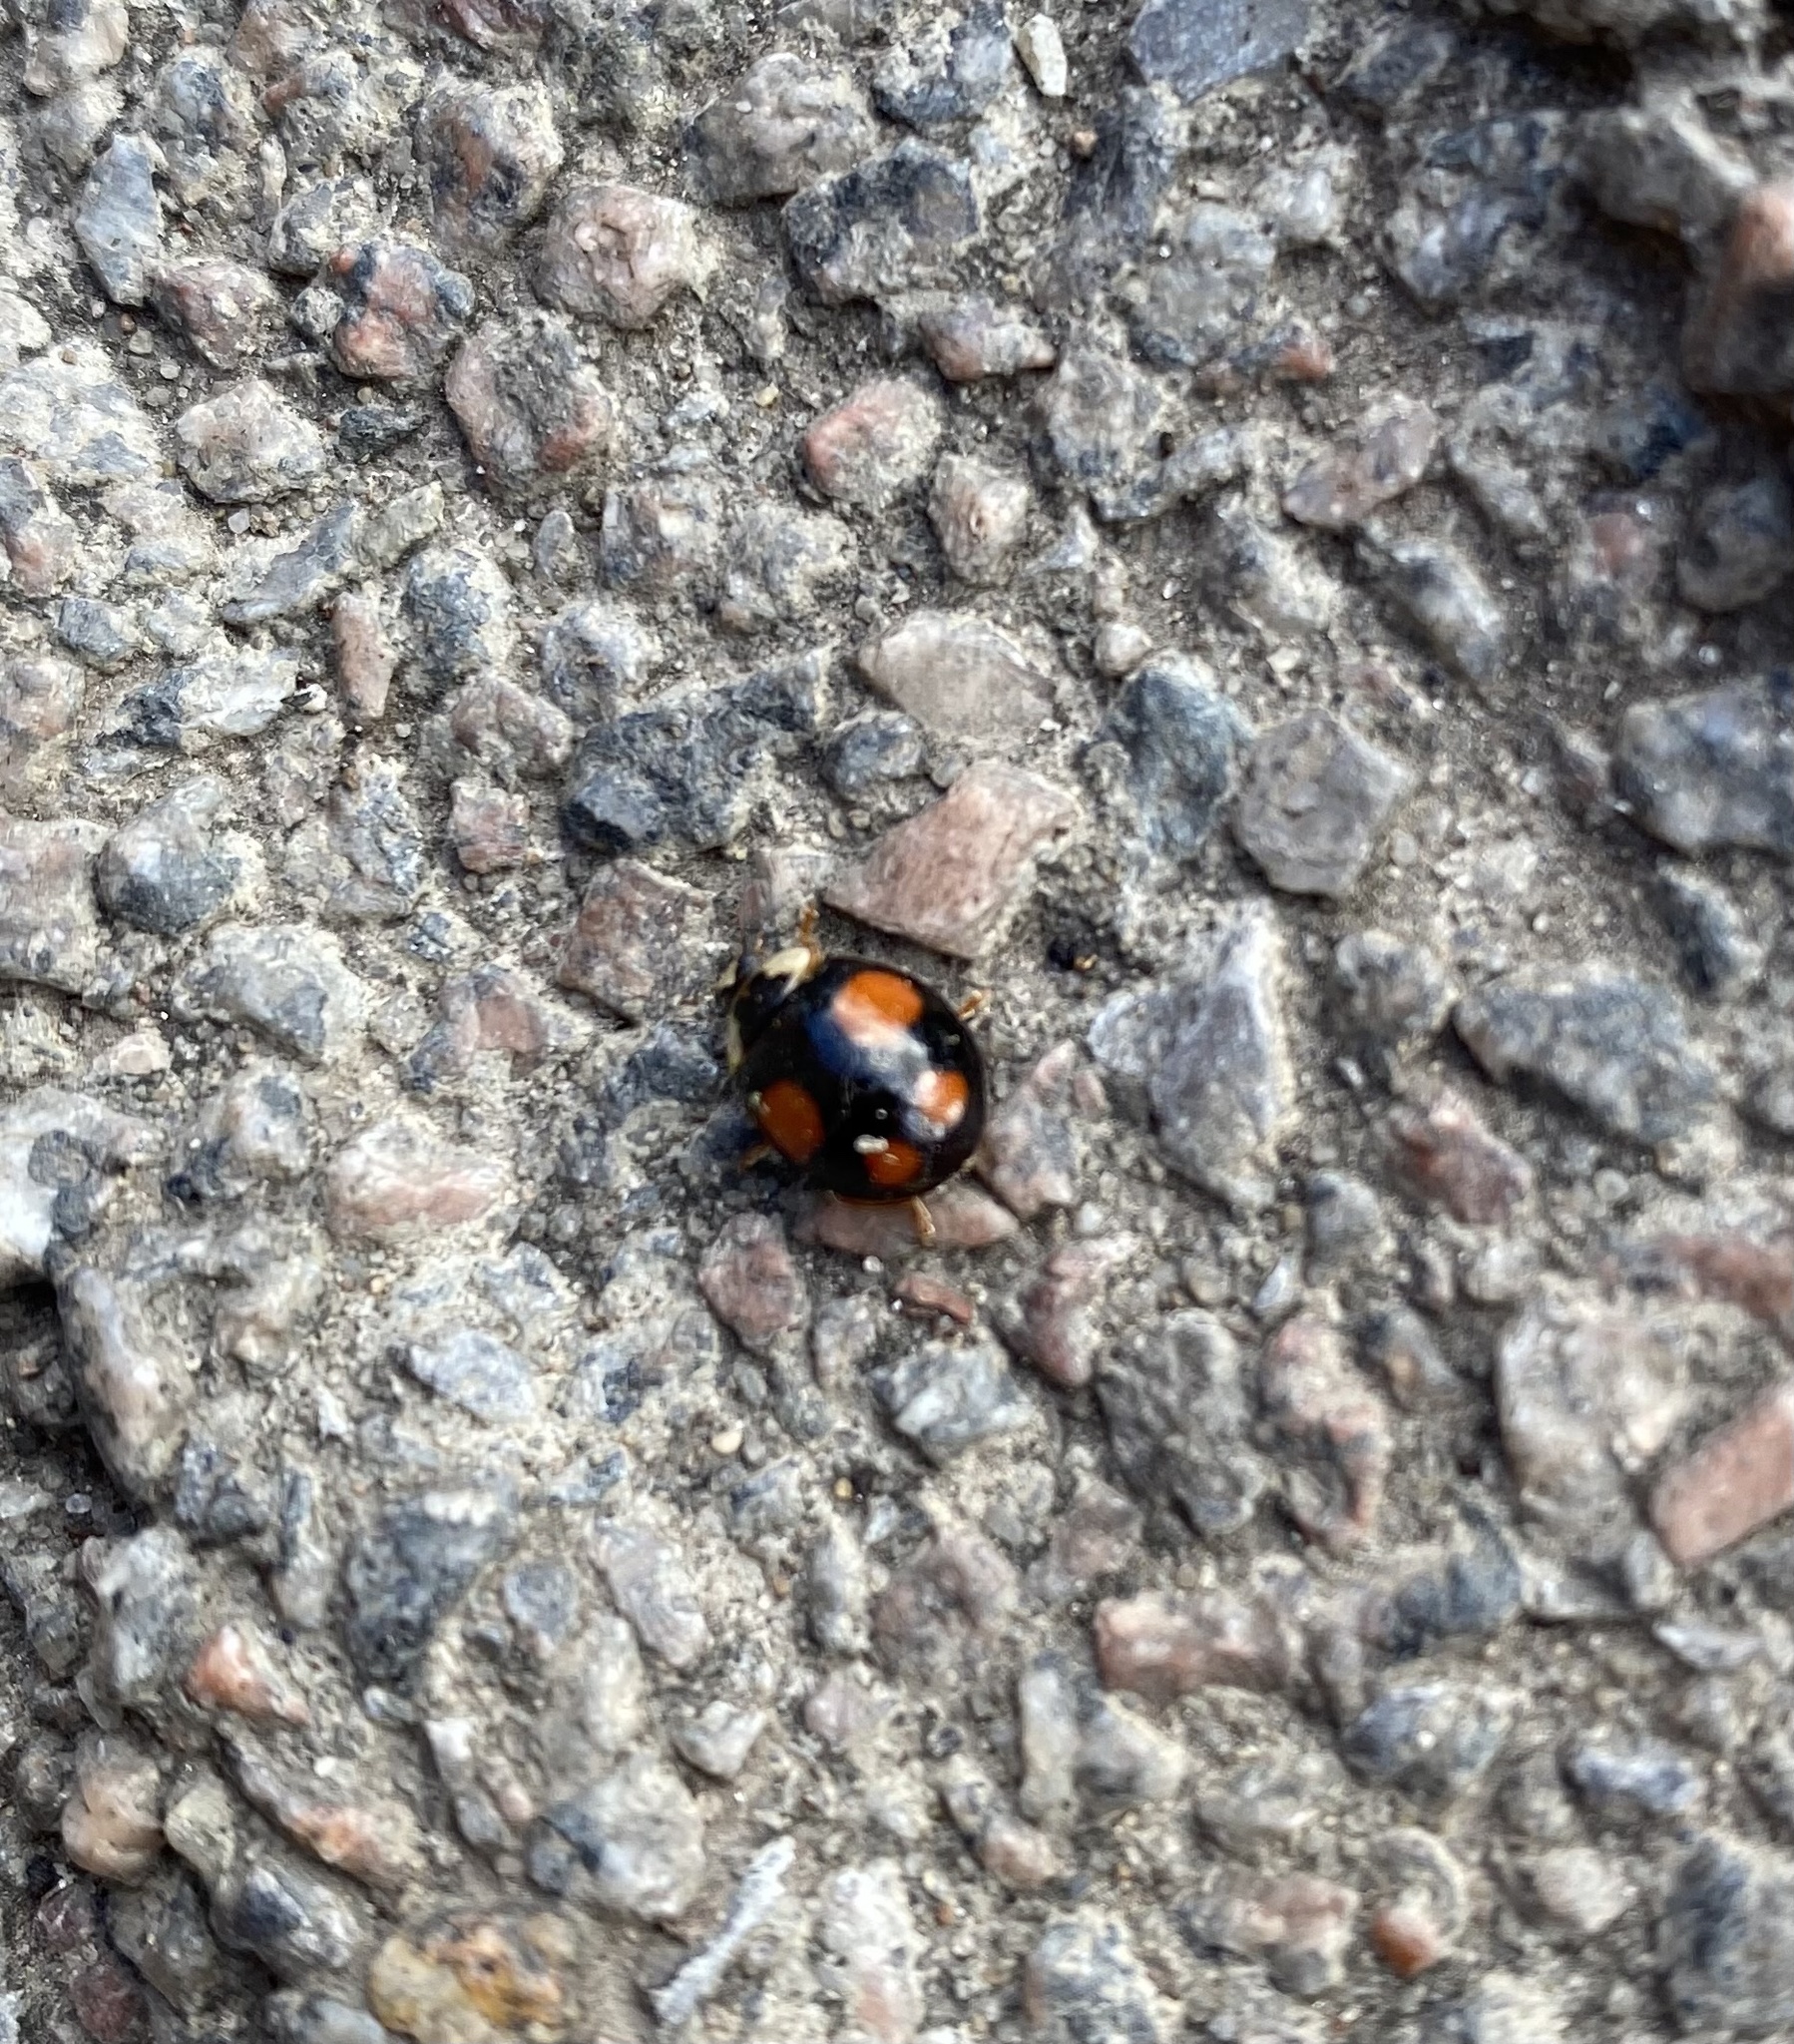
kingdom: Animalia
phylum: Arthropoda
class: Insecta
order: Coleoptera
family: Coccinellidae
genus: Harmonia
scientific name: Harmonia axyridis
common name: Harlequin ladybird
